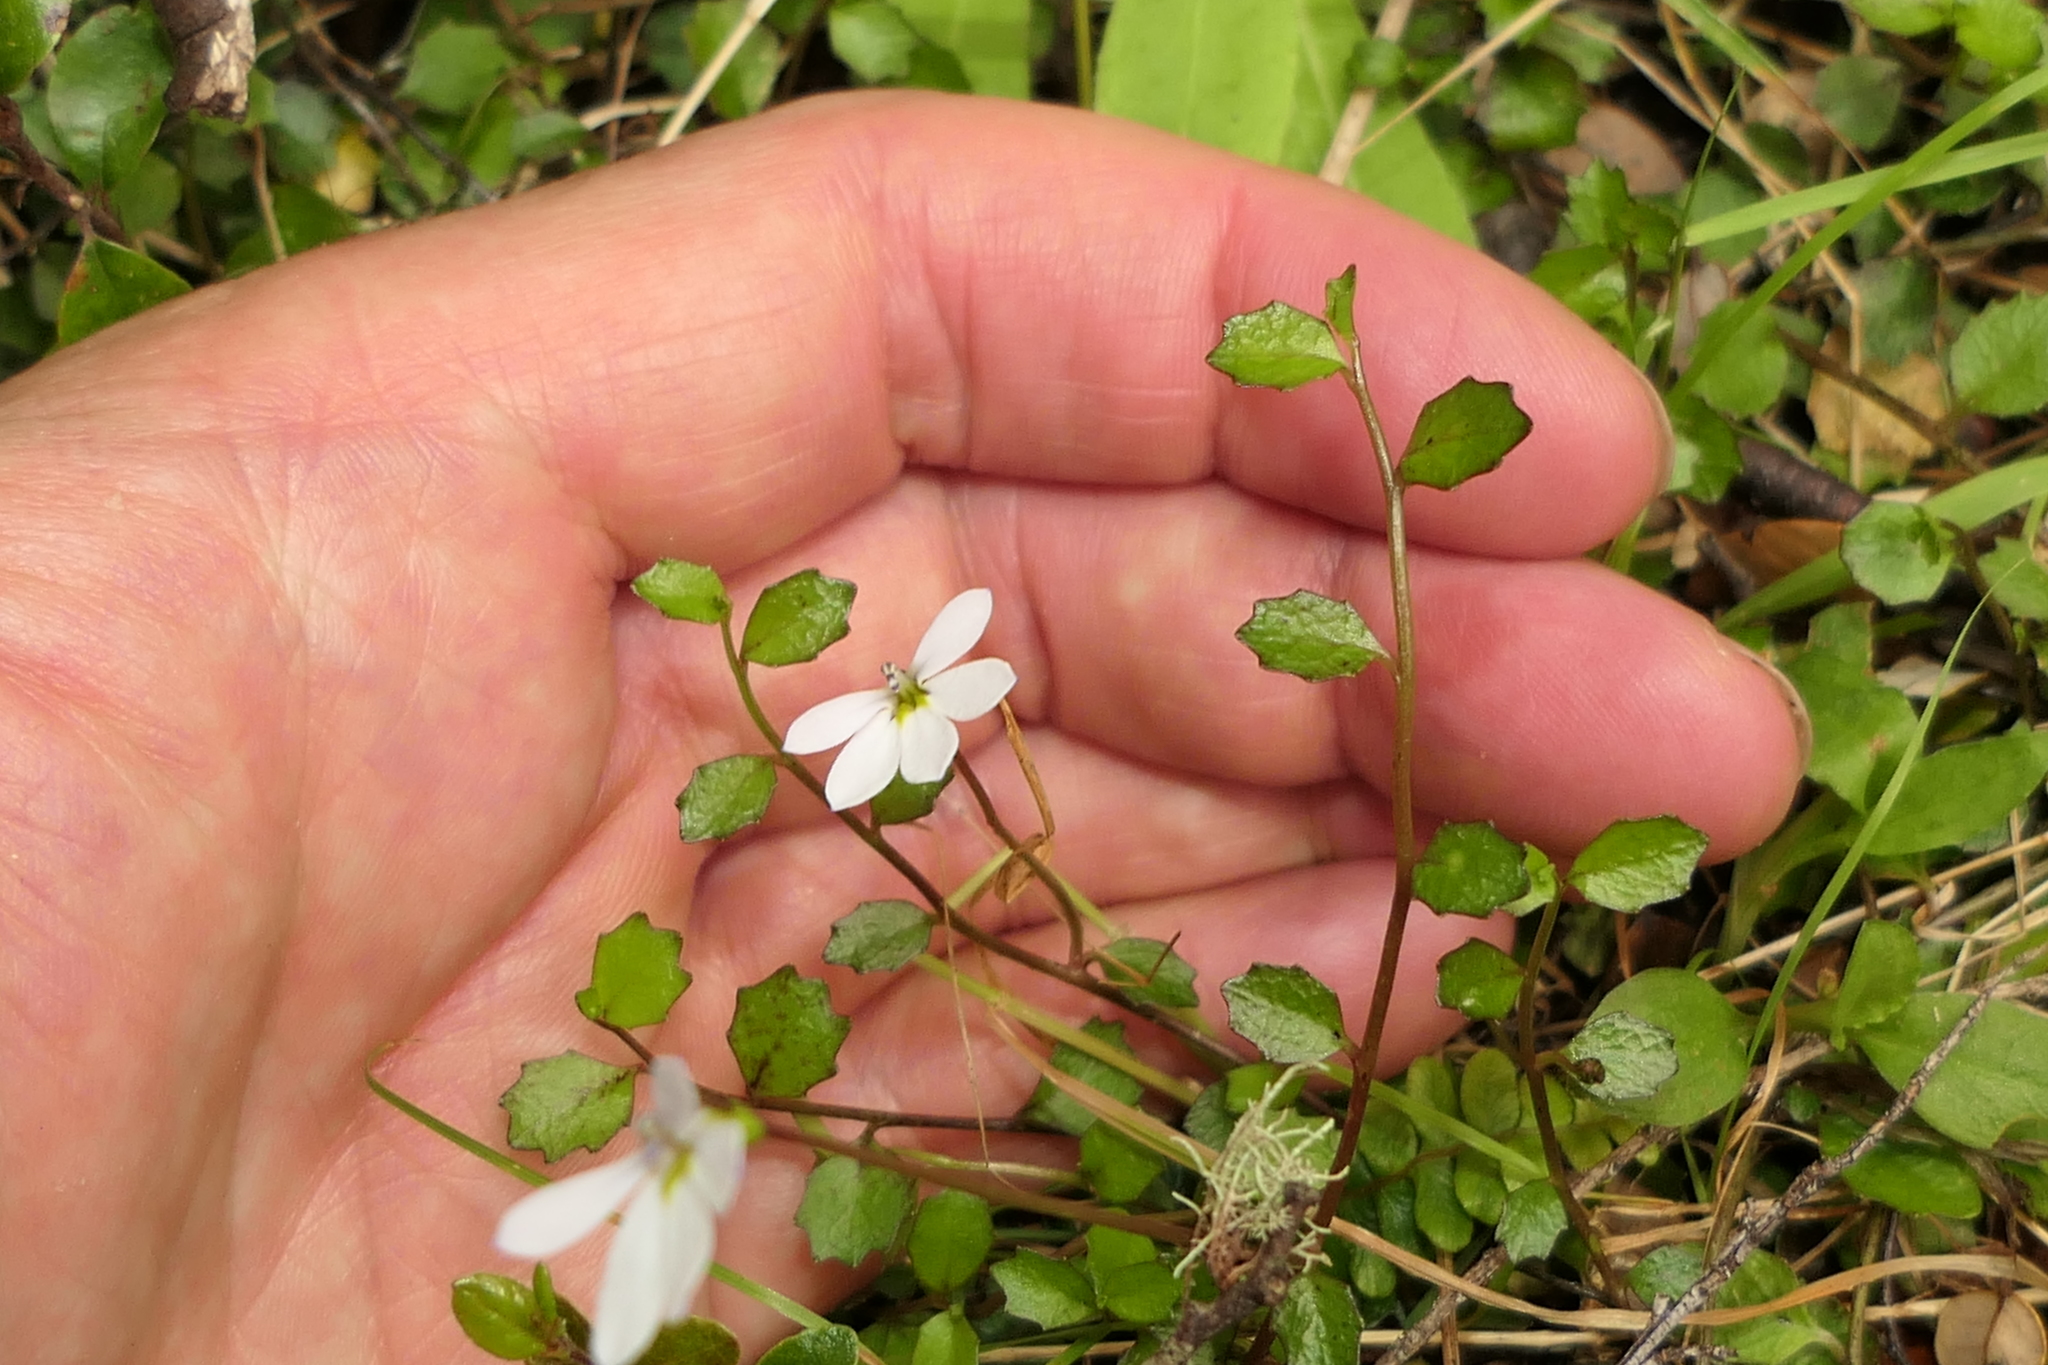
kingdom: Plantae
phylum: Tracheophyta
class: Magnoliopsida
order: Asterales
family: Campanulaceae
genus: Lobelia
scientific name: Lobelia angulata
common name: Lawn lobelia
